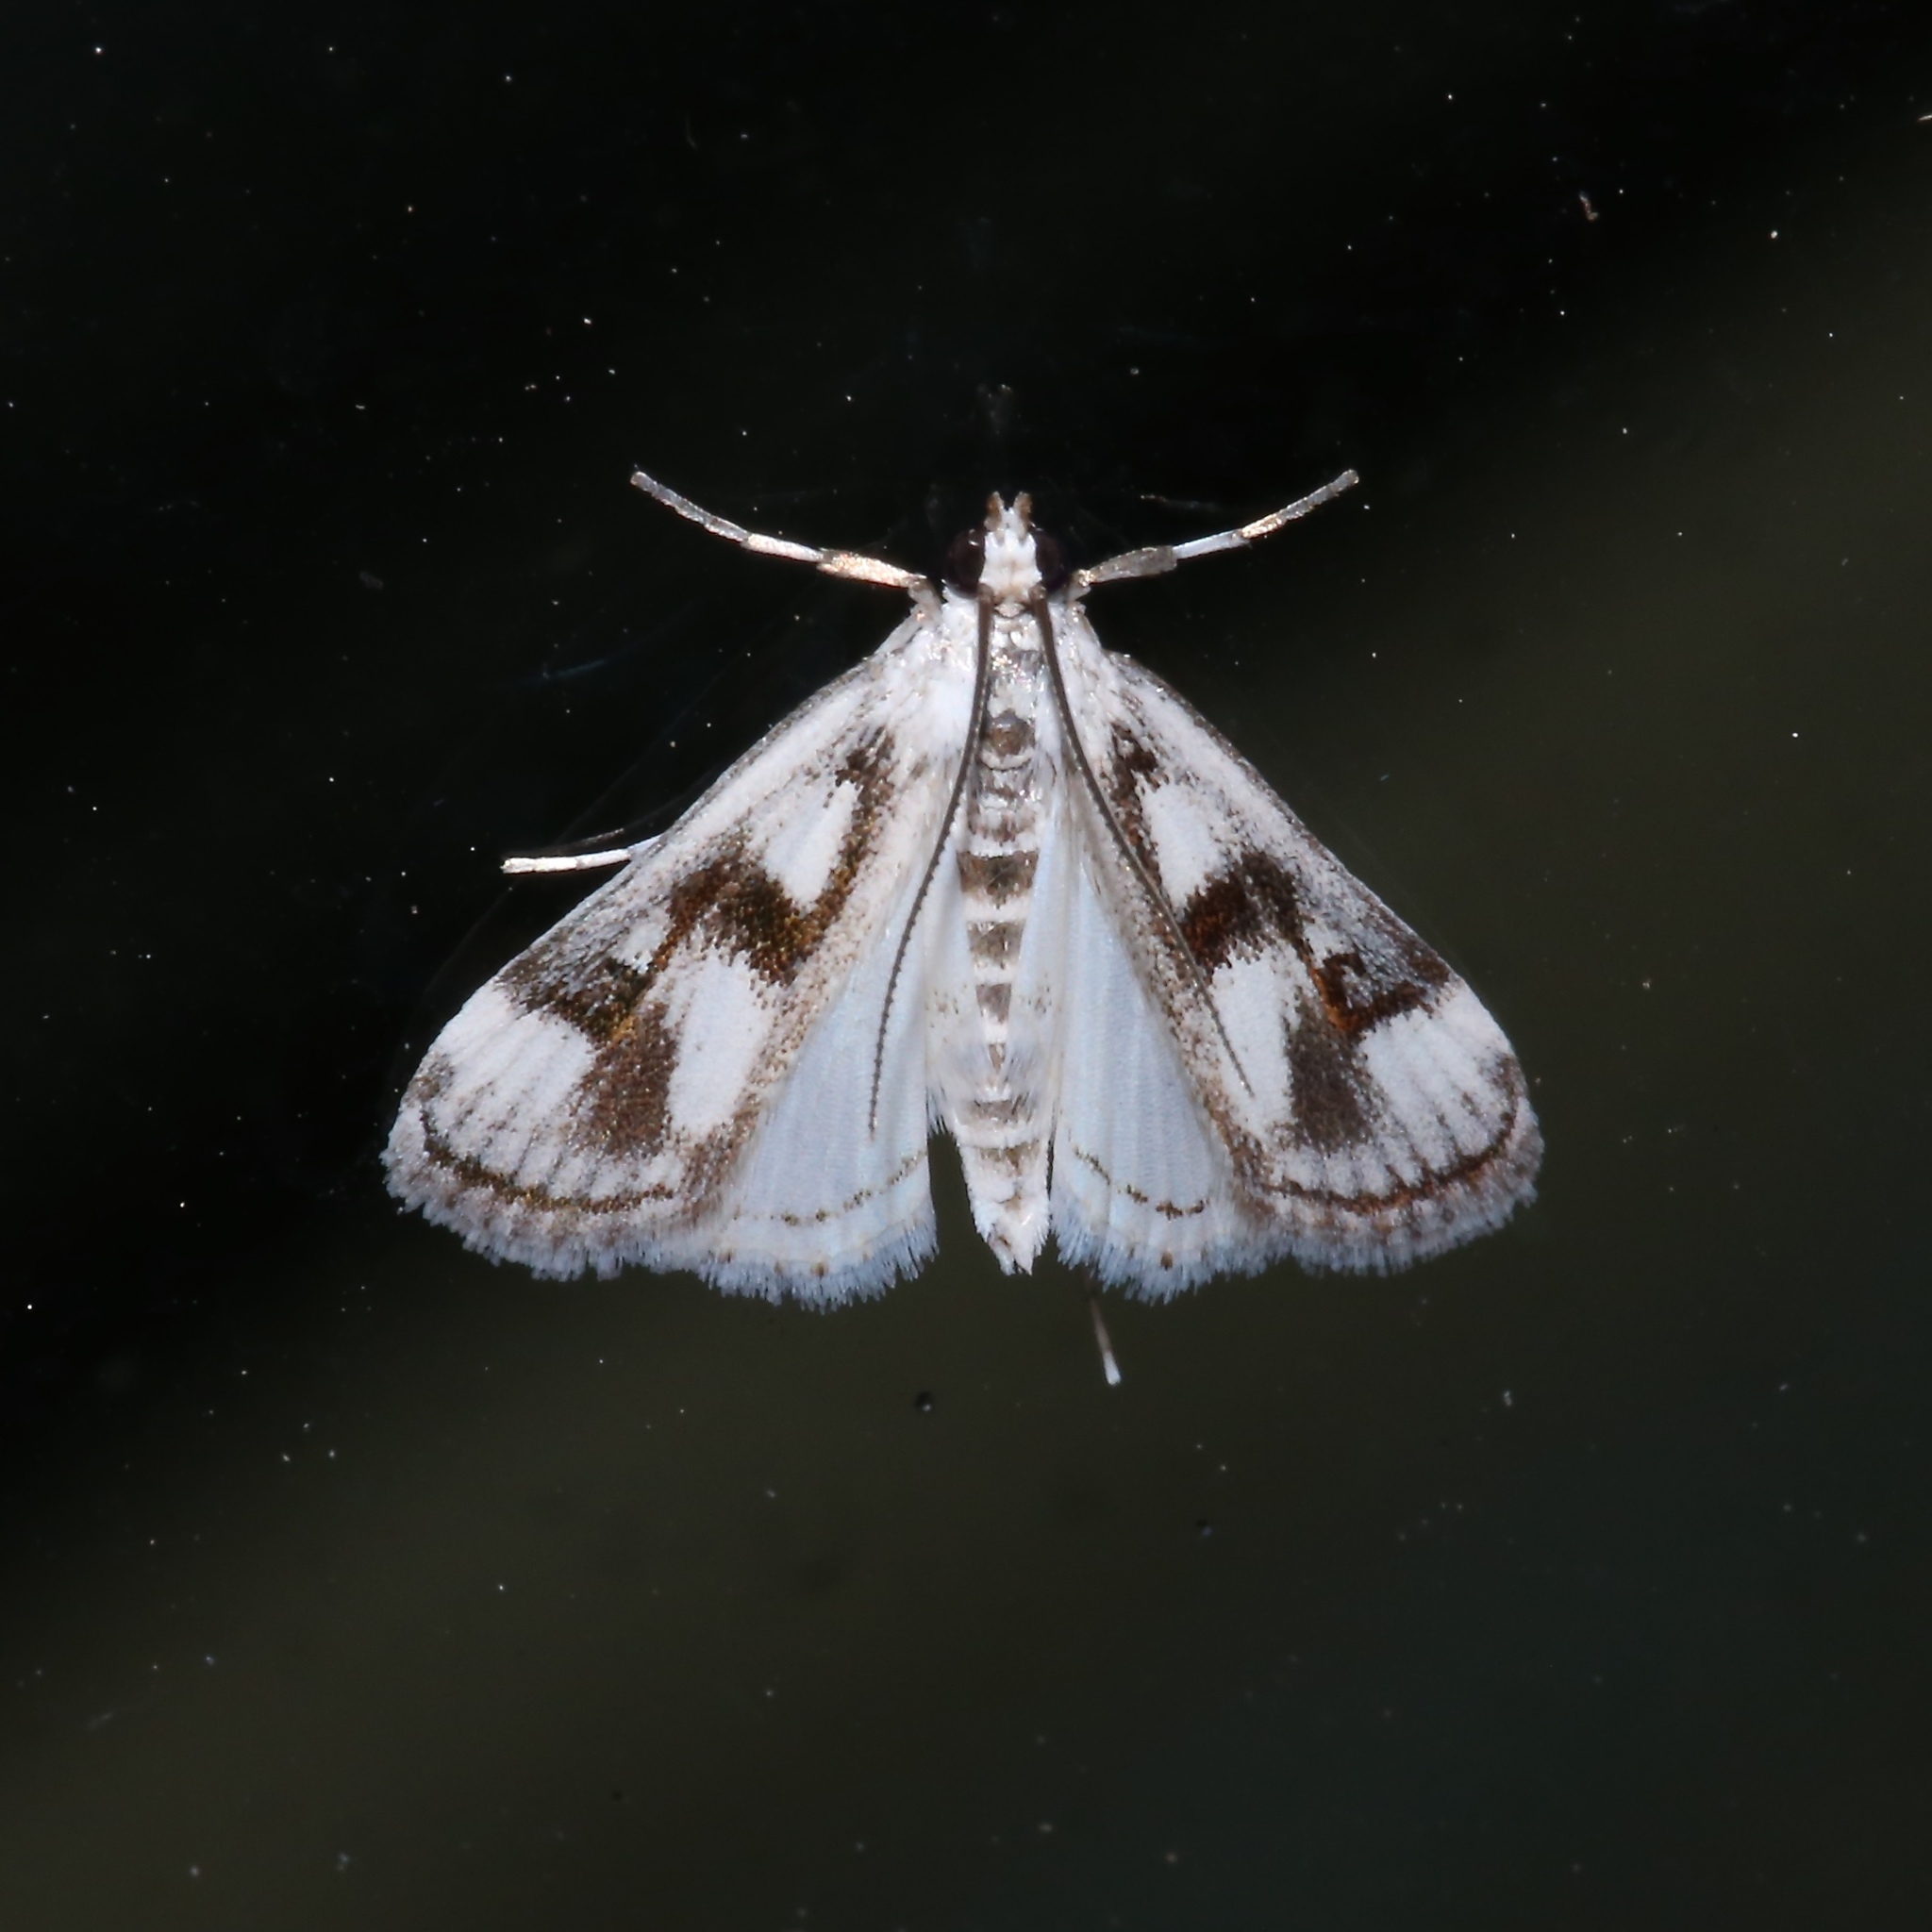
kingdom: Animalia
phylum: Arthropoda
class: Insecta
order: Lepidoptera
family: Crambidae
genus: Parapoynx
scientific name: Parapoynx maculalis
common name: Polymorphic pondweed moth
